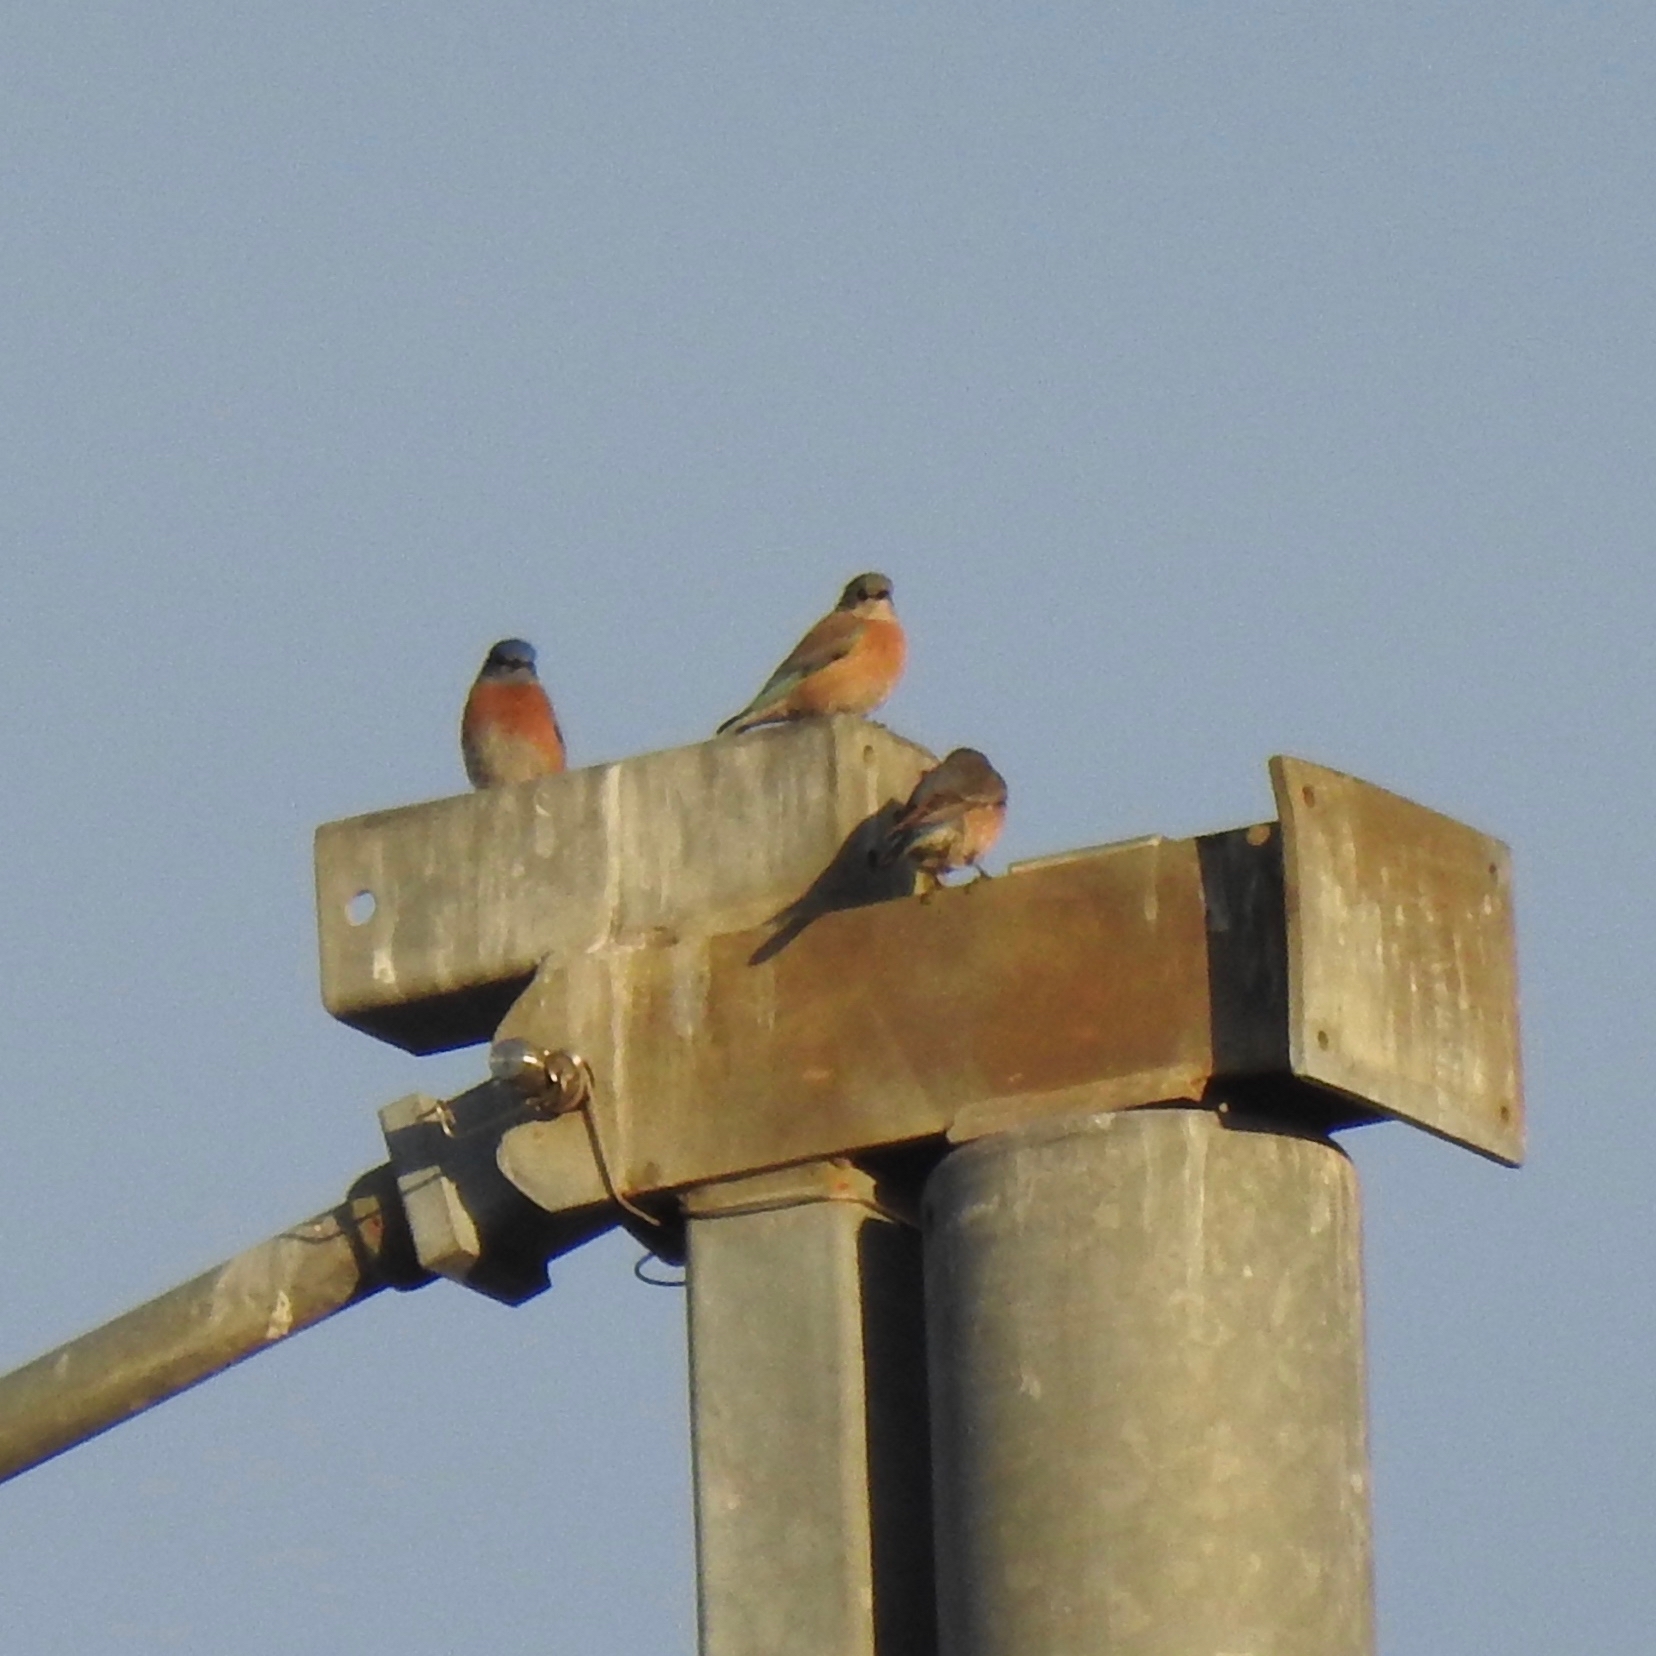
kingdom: Animalia
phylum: Chordata
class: Aves
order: Passeriformes
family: Turdidae
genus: Sialia
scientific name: Sialia mexicana
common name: Western bluebird
